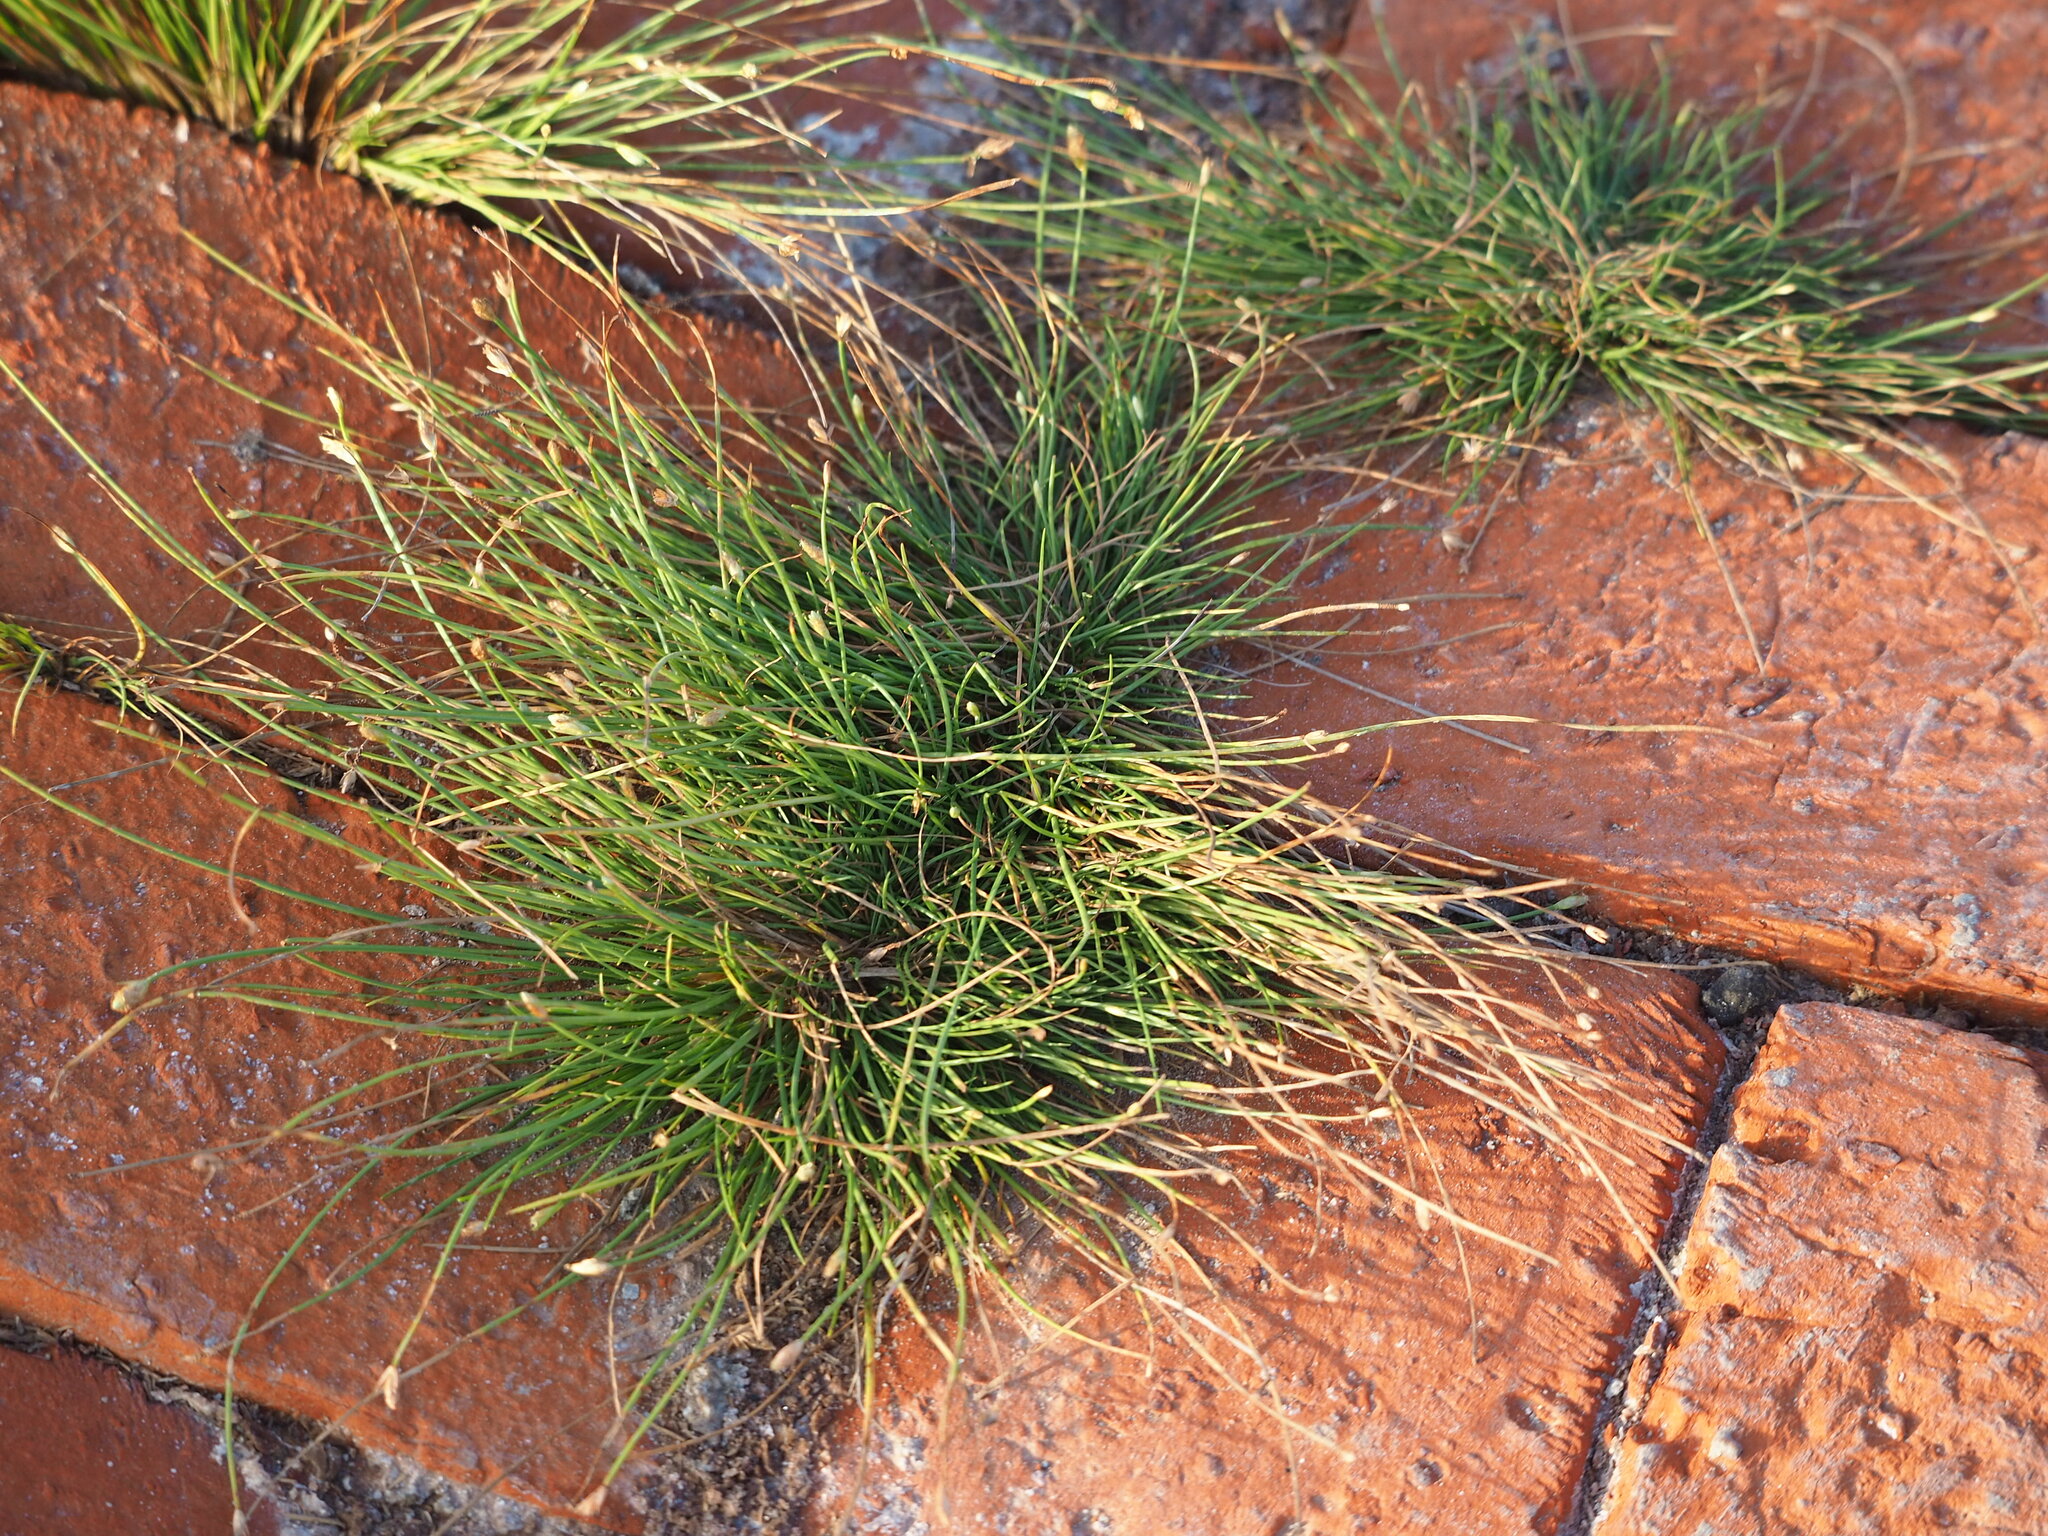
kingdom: Plantae
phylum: Tracheophyta
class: Liliopsida
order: Poales
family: Cyperaceae
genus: Fimbristylis
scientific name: Fimbristylis polytrichoides
